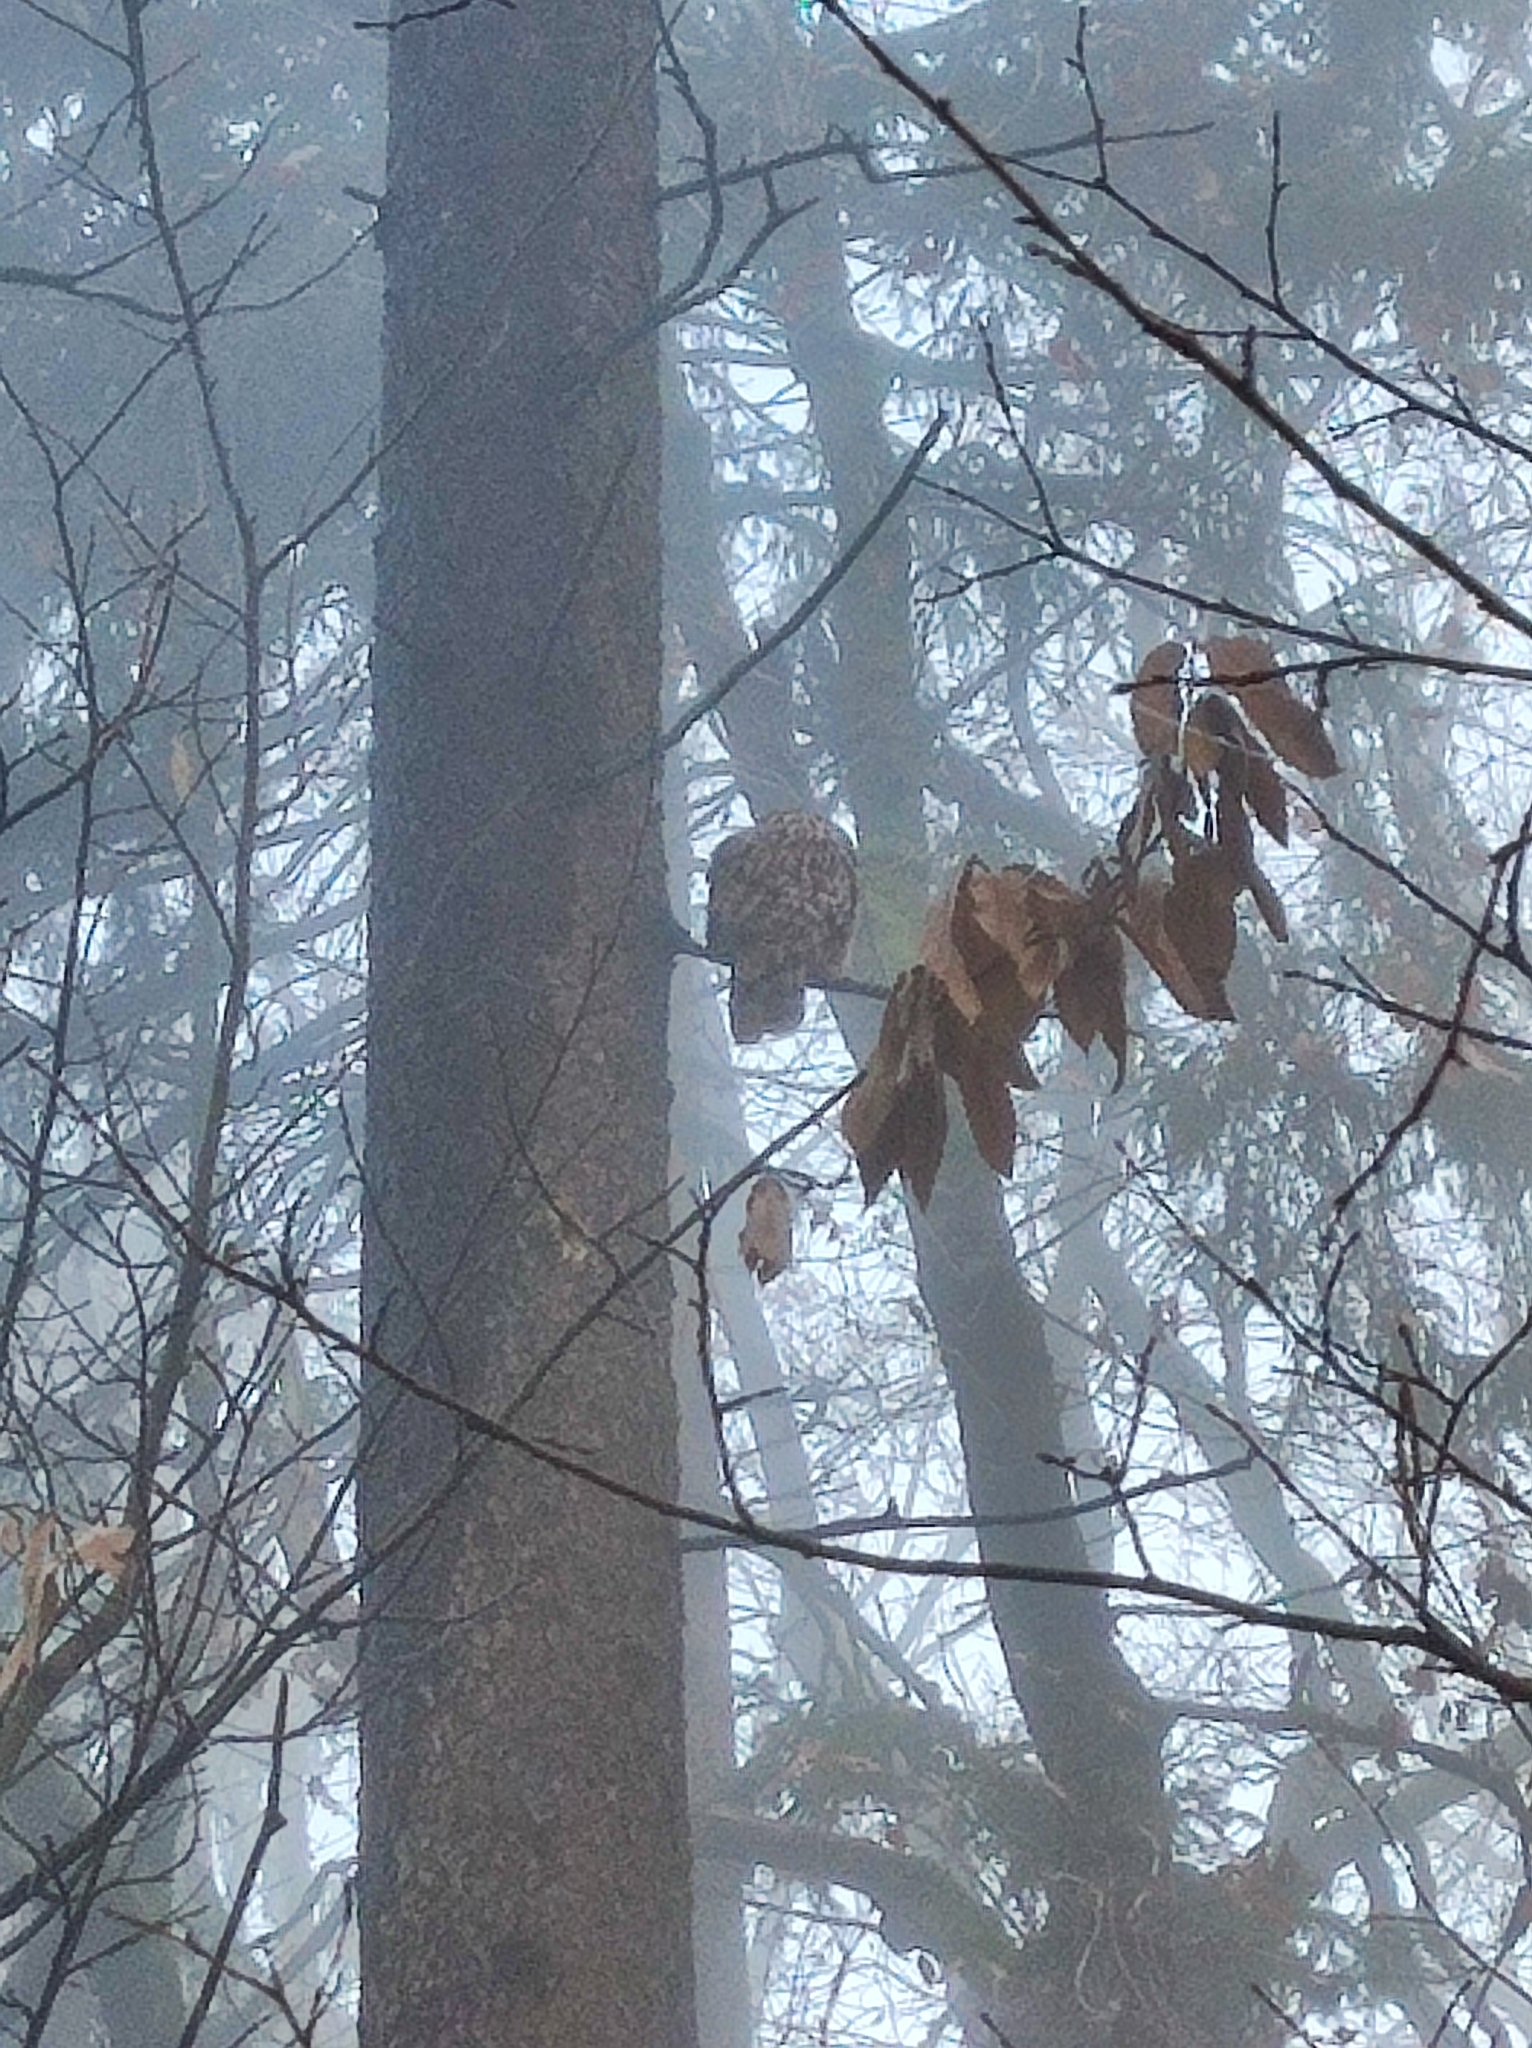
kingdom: Animalia
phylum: Chordata
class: Aves
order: Strigiformes
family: Strigidae
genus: Strix
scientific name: Strix aluco
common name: Tawny owl
